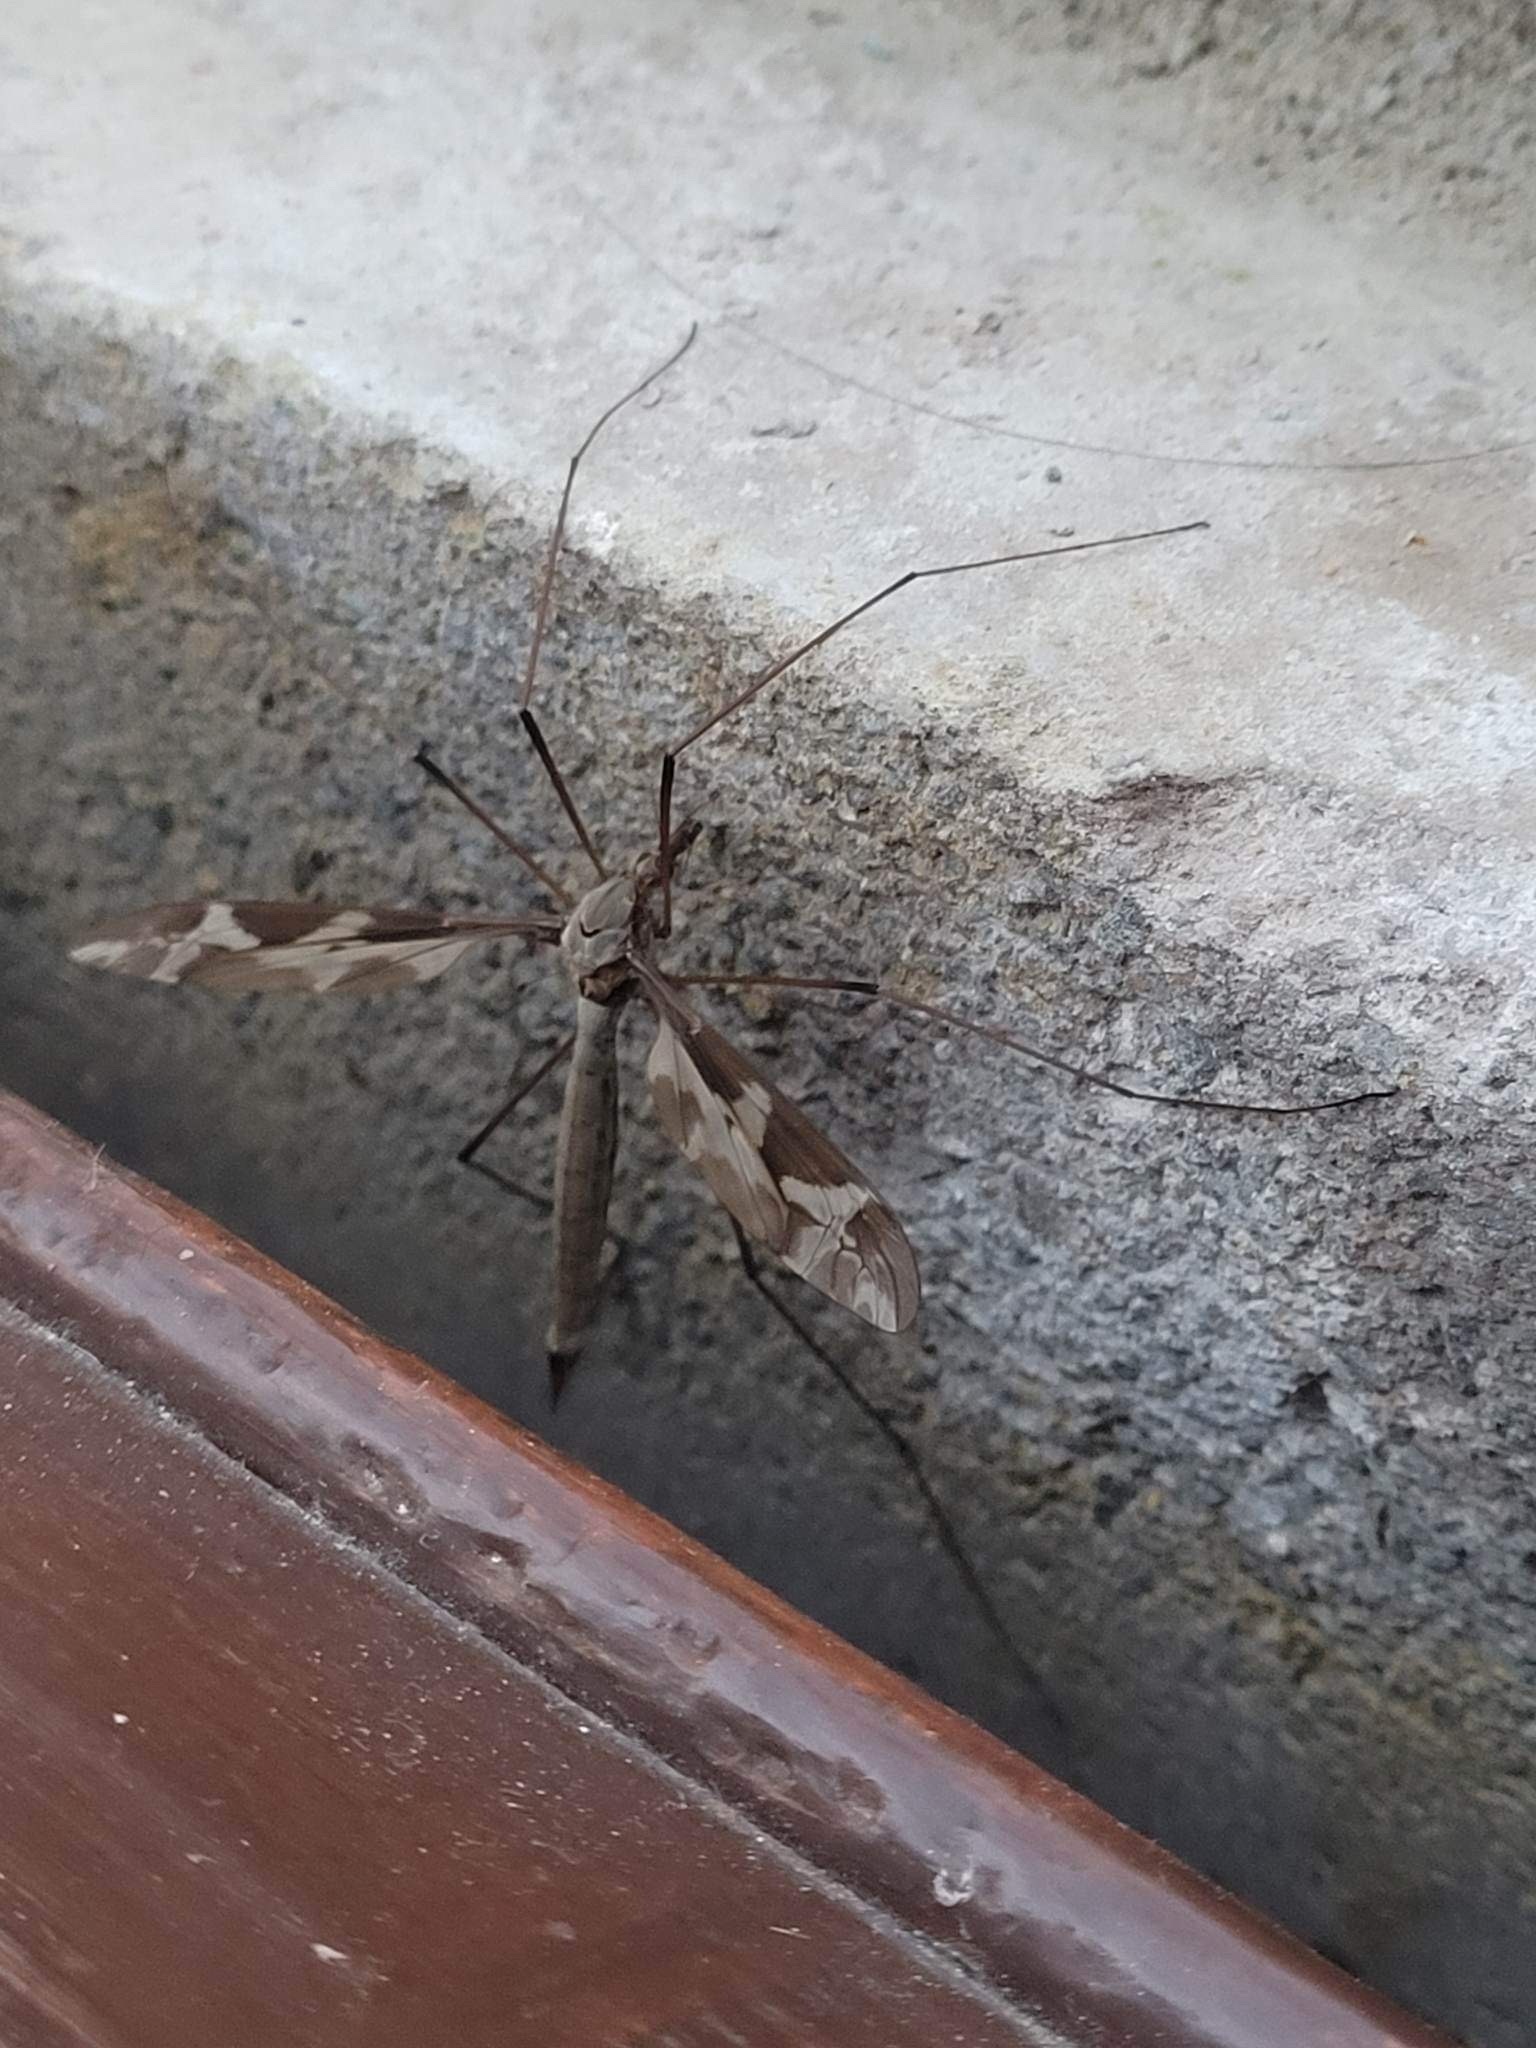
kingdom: Animalia
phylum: Arthropoda
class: Insecta
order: Diptera
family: Tipulidae
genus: Tipula
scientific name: Tipula maxima
